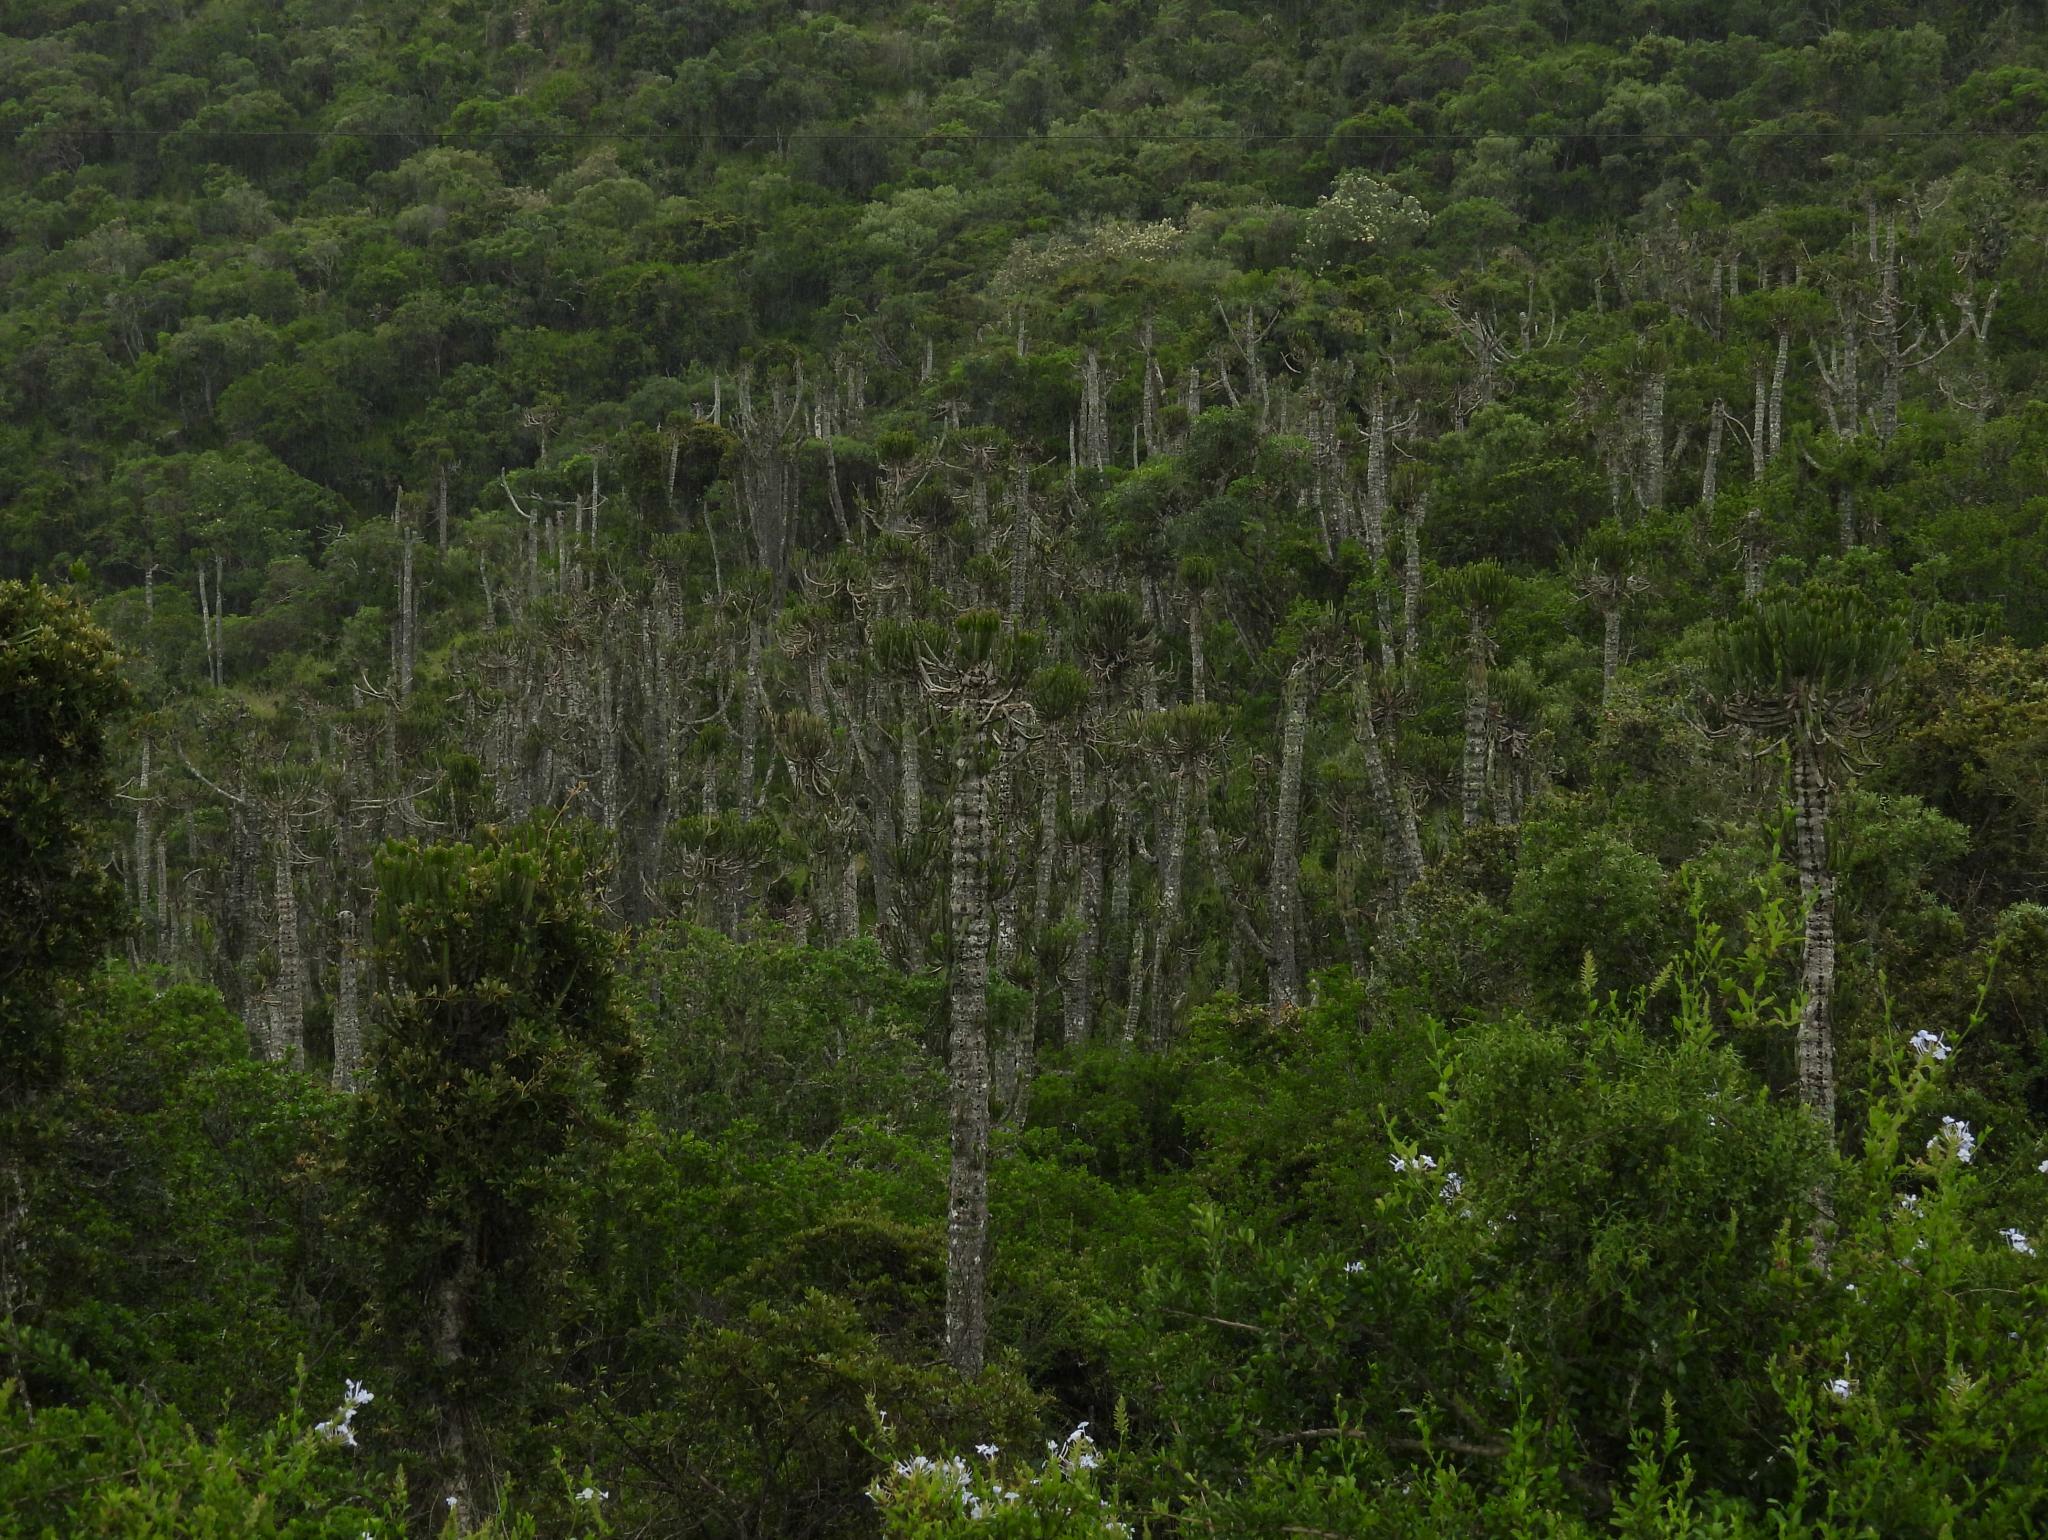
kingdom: Plantae
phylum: Tracheophyta
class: Magnoliopsida
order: Malpighiales
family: Euphorbiaceae
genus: Euphorbia
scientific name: Euphorbia tetragona
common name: Honey euphorbia
